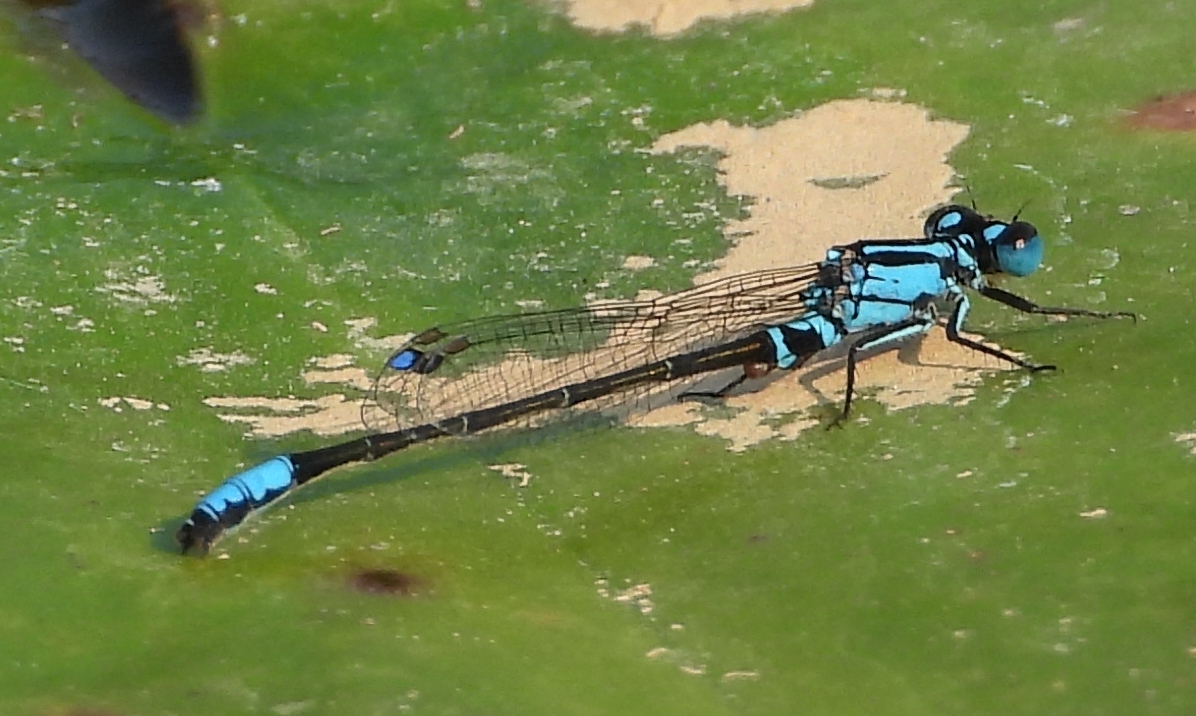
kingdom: Animalia
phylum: Arthropoda
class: Insecta
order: Odonata
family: Coenagrionidae
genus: Ischnura
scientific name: Ischnura kellicotti
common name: Lilypad forktail
